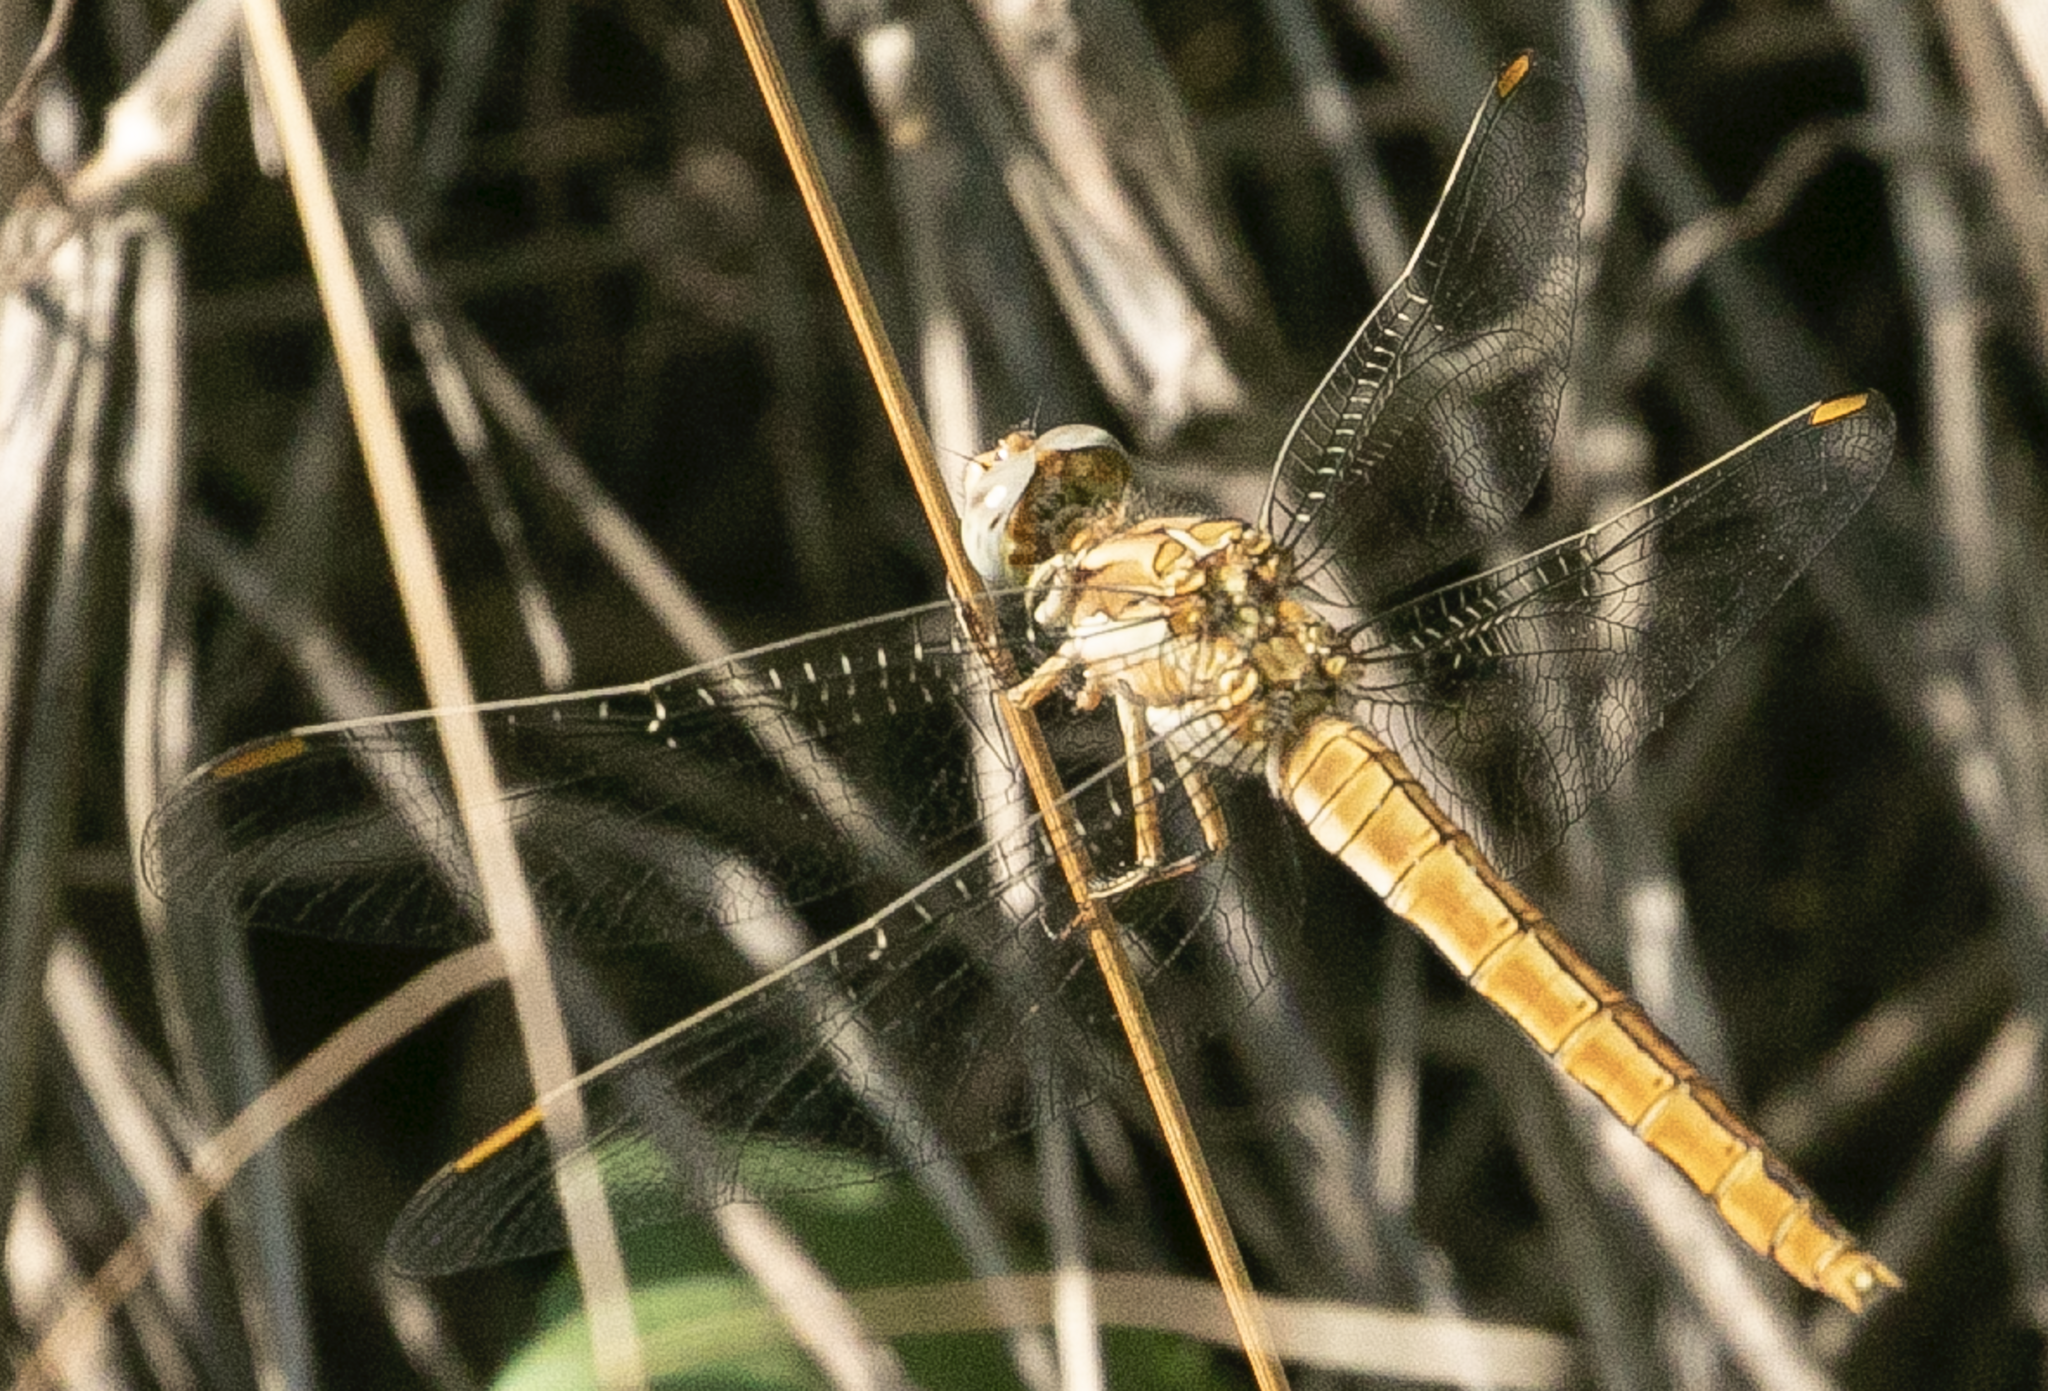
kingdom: Animalia
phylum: Arthropoda
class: Insecta
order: Odonata
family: Libellulidae
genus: Orthetrum
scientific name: Orthetrum brunneum
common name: Southern skimmer
